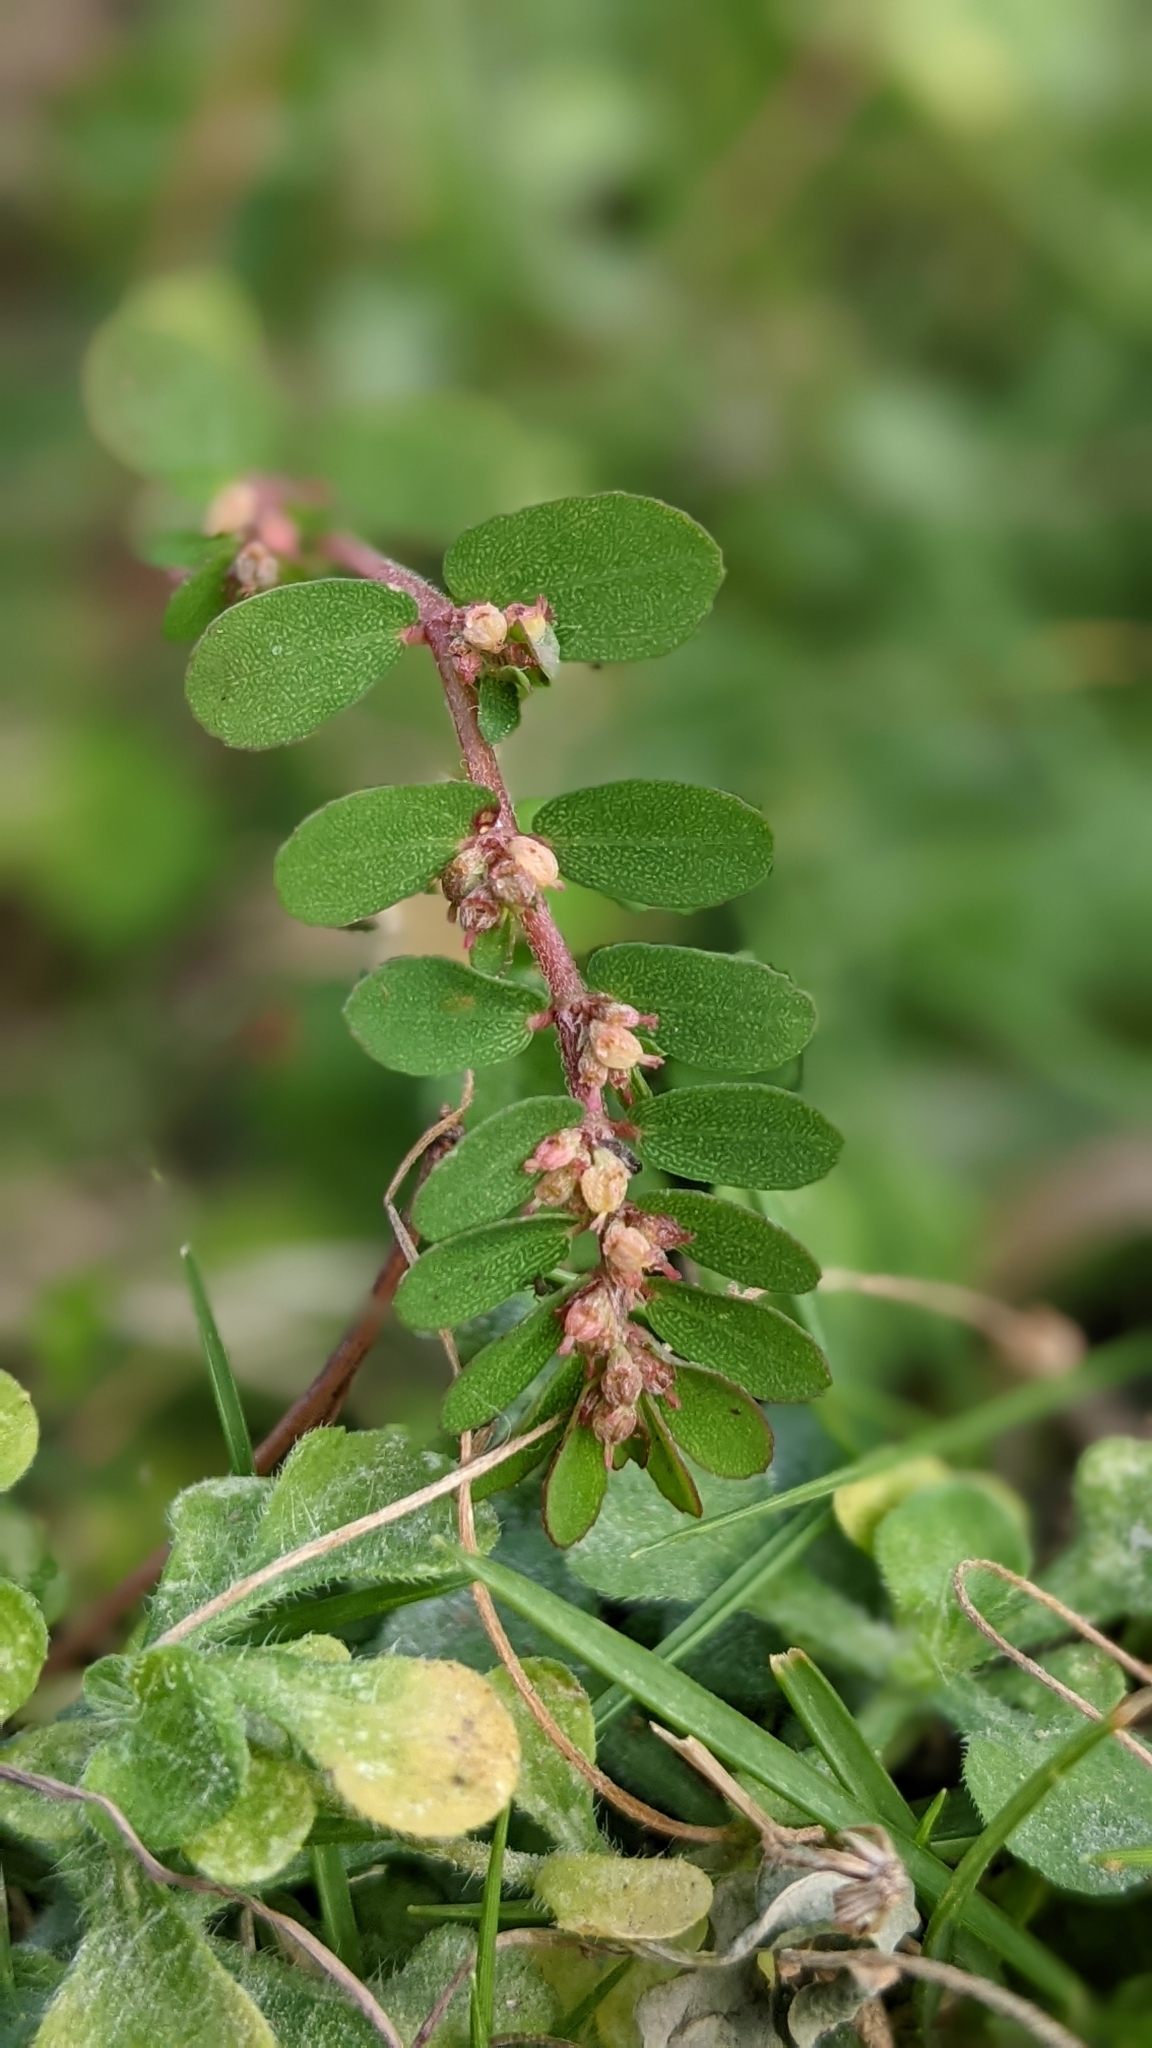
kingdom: Plantae
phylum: Tracheophyta
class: Magnoliopsida
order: Malpighiales
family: Euphorbiaceae
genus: Euphorbia
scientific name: Euphorbia thymifolia
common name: Gulf sandmat
